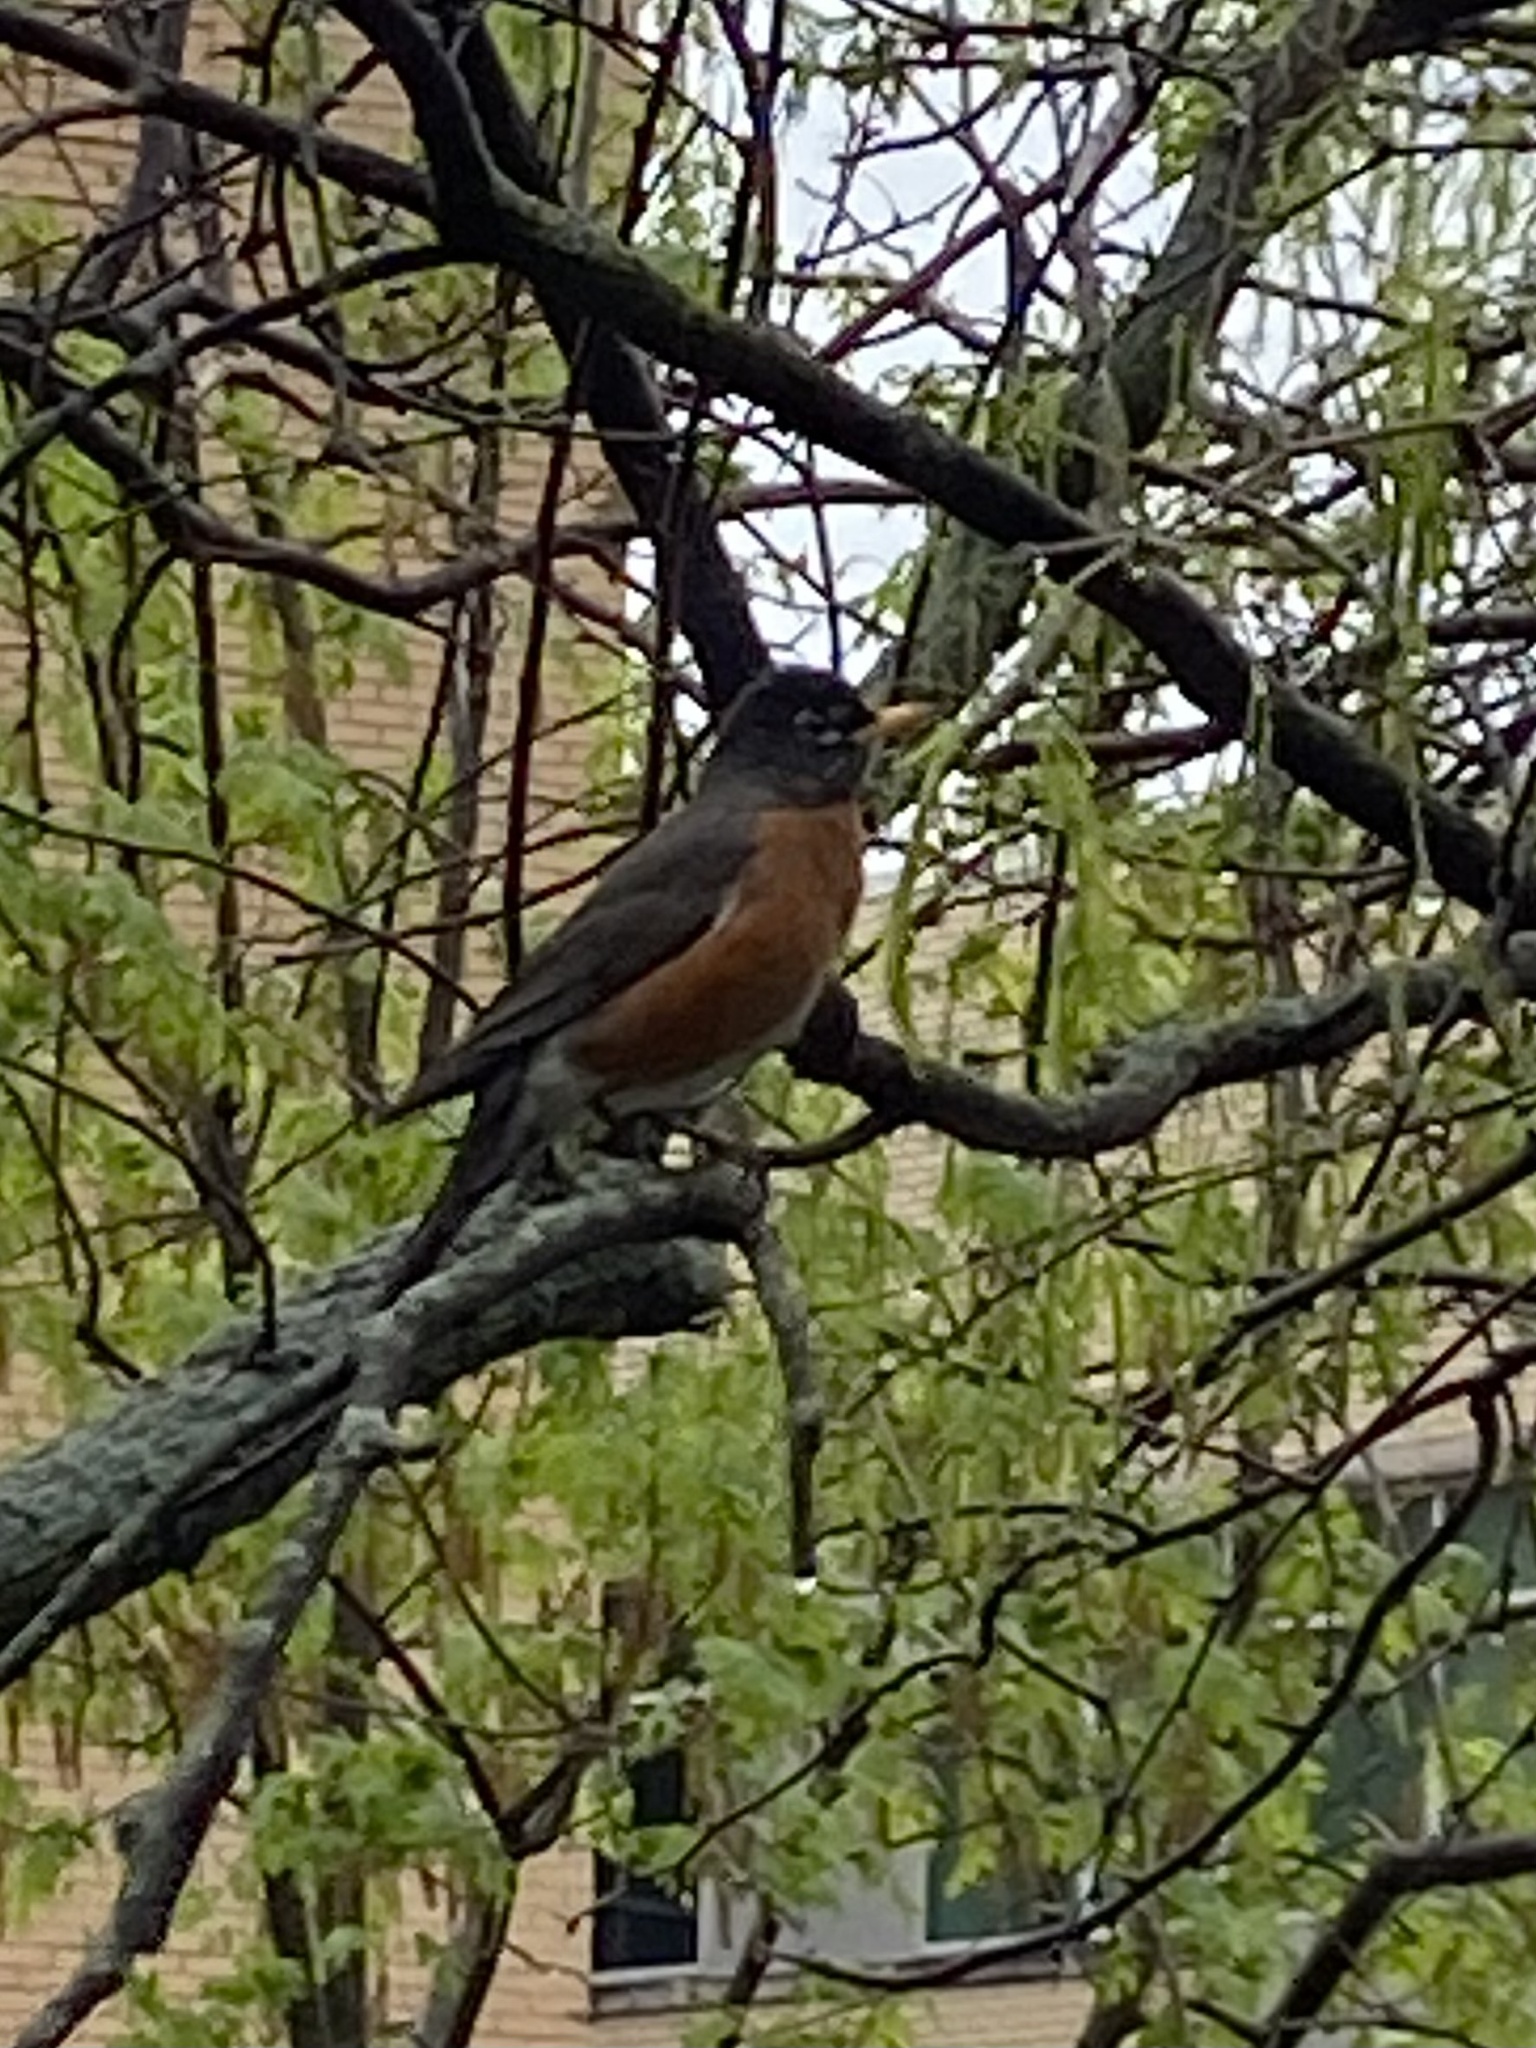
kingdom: Animalia
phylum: Chordata
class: Aves
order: Passeriformes
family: Turdidae
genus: Turdus
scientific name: Turdus migratorius
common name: American robin
